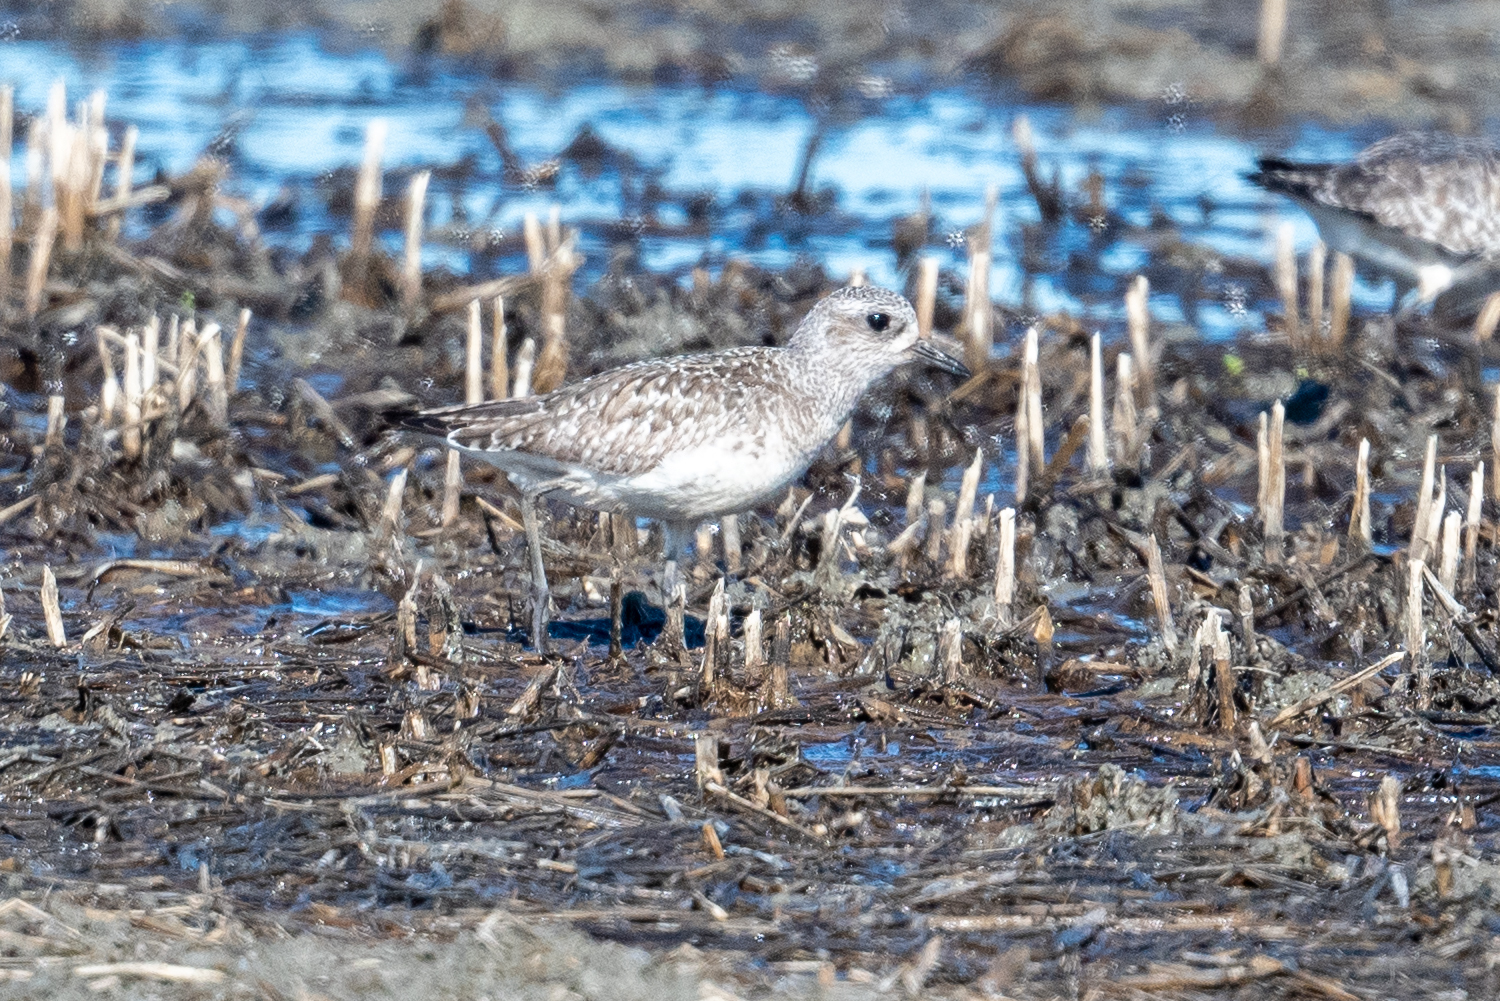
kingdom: Animalia
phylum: Chordata
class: Aves
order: Charadriiformes
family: Charadriidae
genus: Pluvialis
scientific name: Pluvialis squatarola
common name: Grey plover
